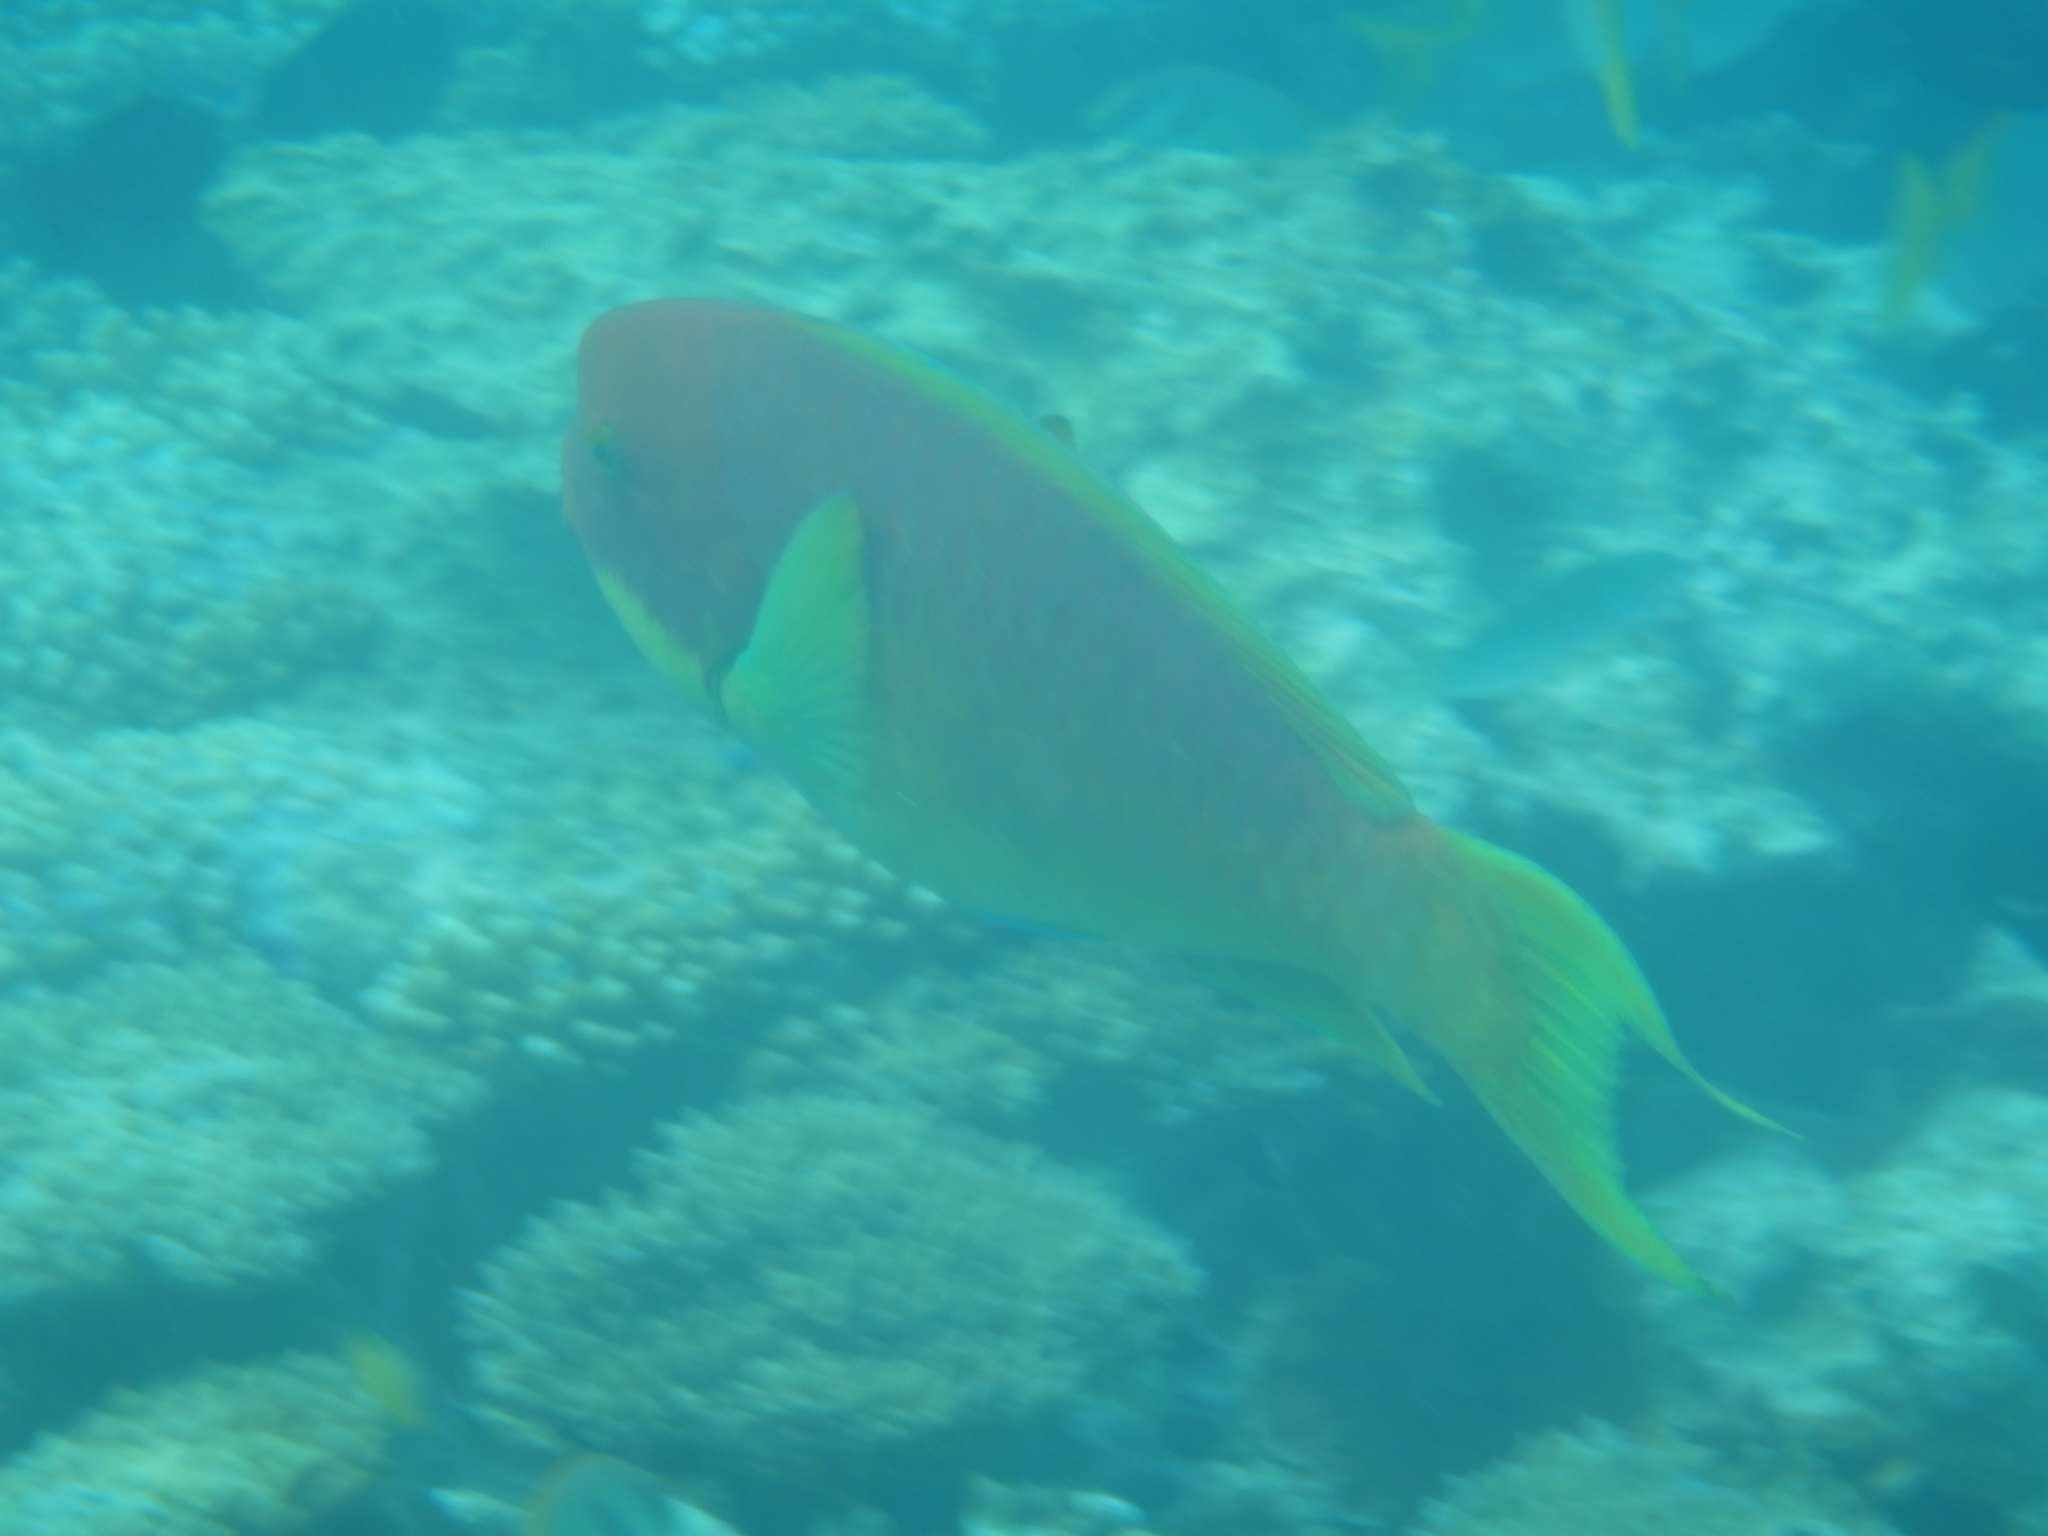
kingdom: Animalia
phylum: Chordata
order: Perciformes
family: Scaridae
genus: Chlorurus
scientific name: Chlorurus microrhinos
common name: Steephead parrotfish
